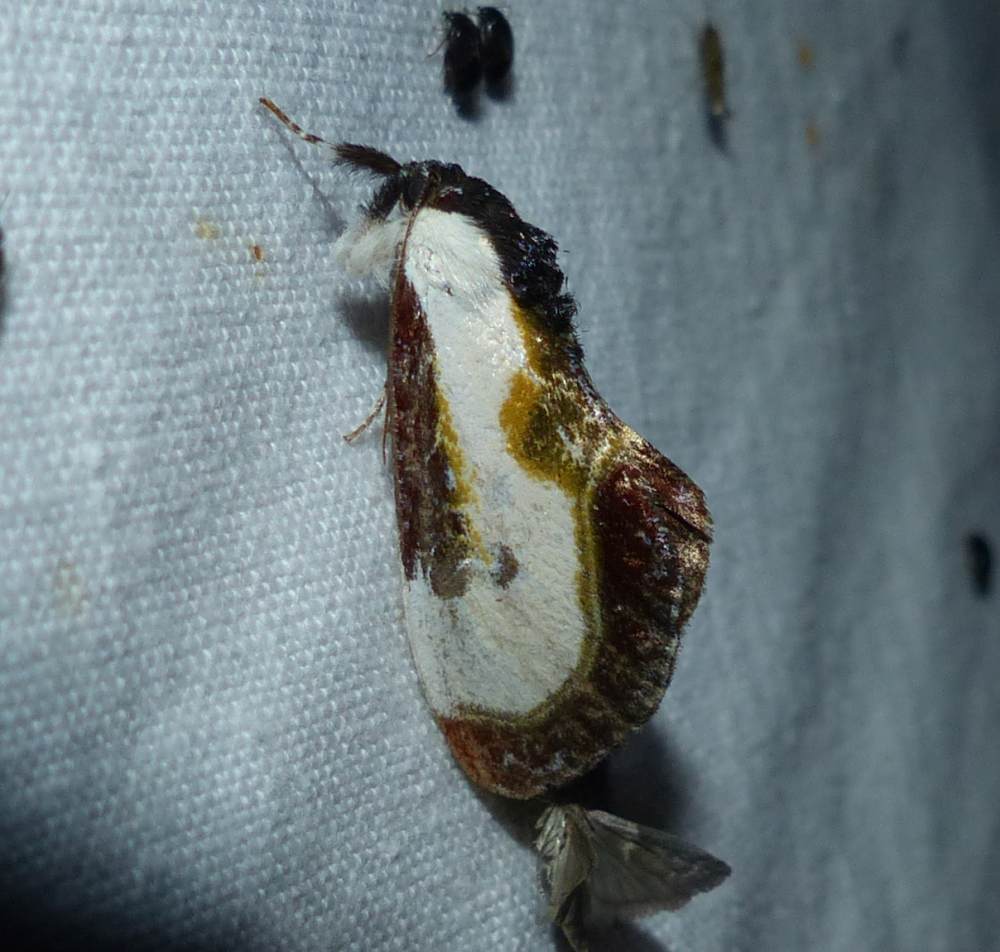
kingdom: Animalia
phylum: Arthropoda
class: Insecta
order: Lepidoptera
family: Noctuidae
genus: Eudryas
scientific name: Eudryas grata
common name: Beautiful wood-nymph
